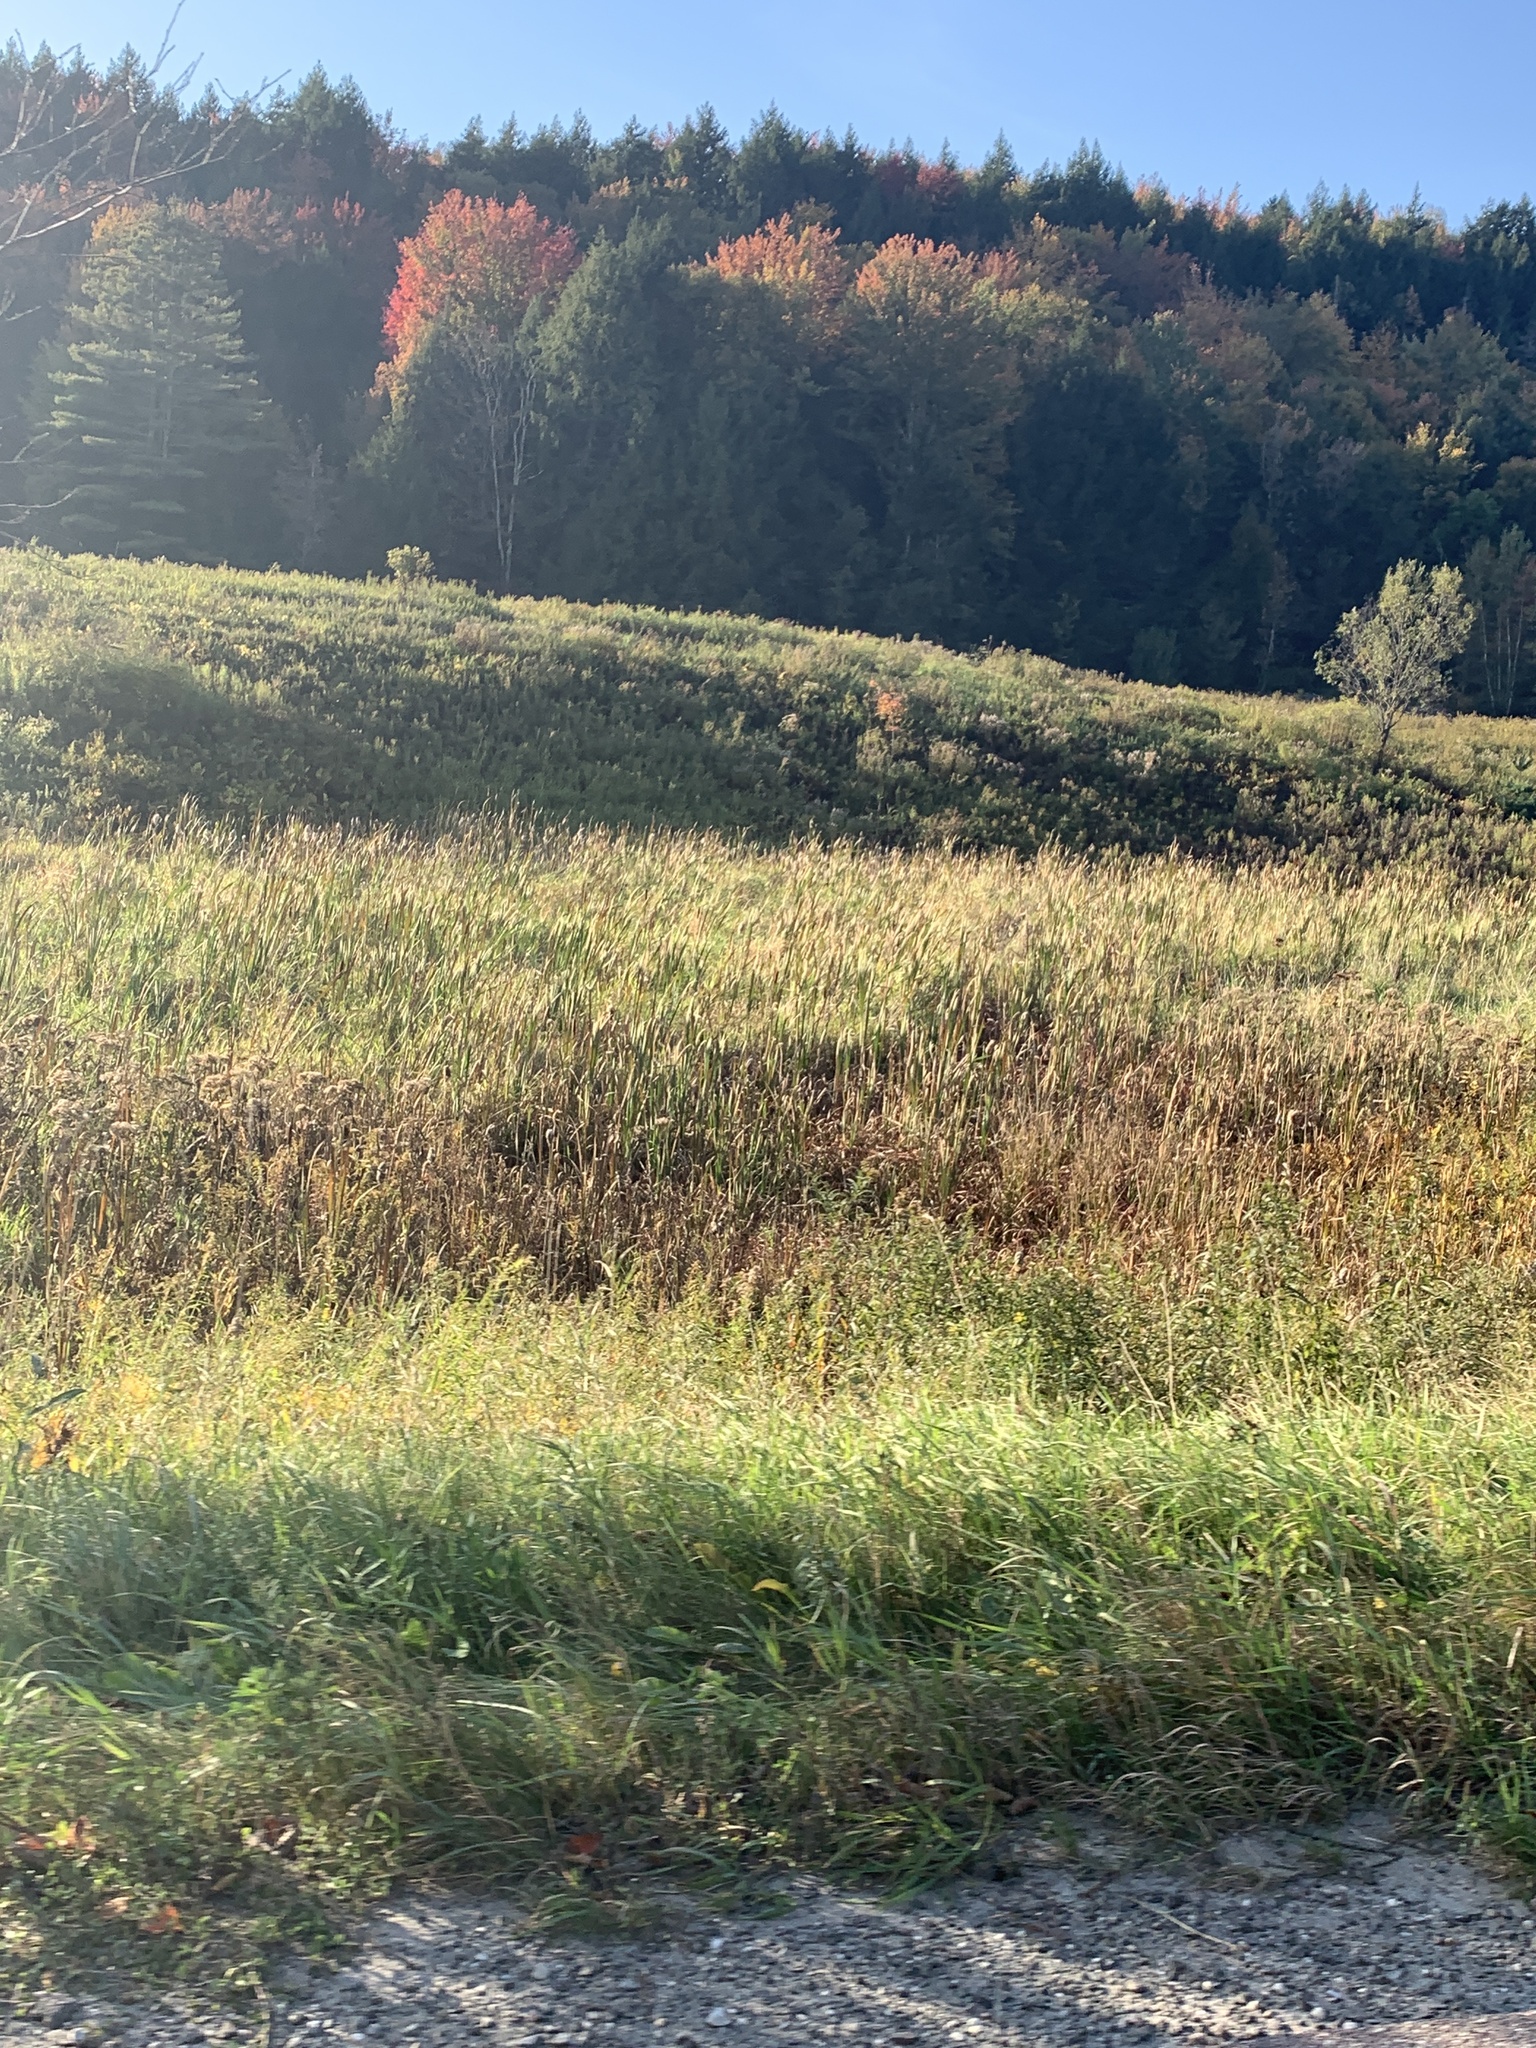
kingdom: Plantae
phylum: Tracheophyta
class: Liliopsida
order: Poales
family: Typhaceae
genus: Typha
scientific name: Typha
